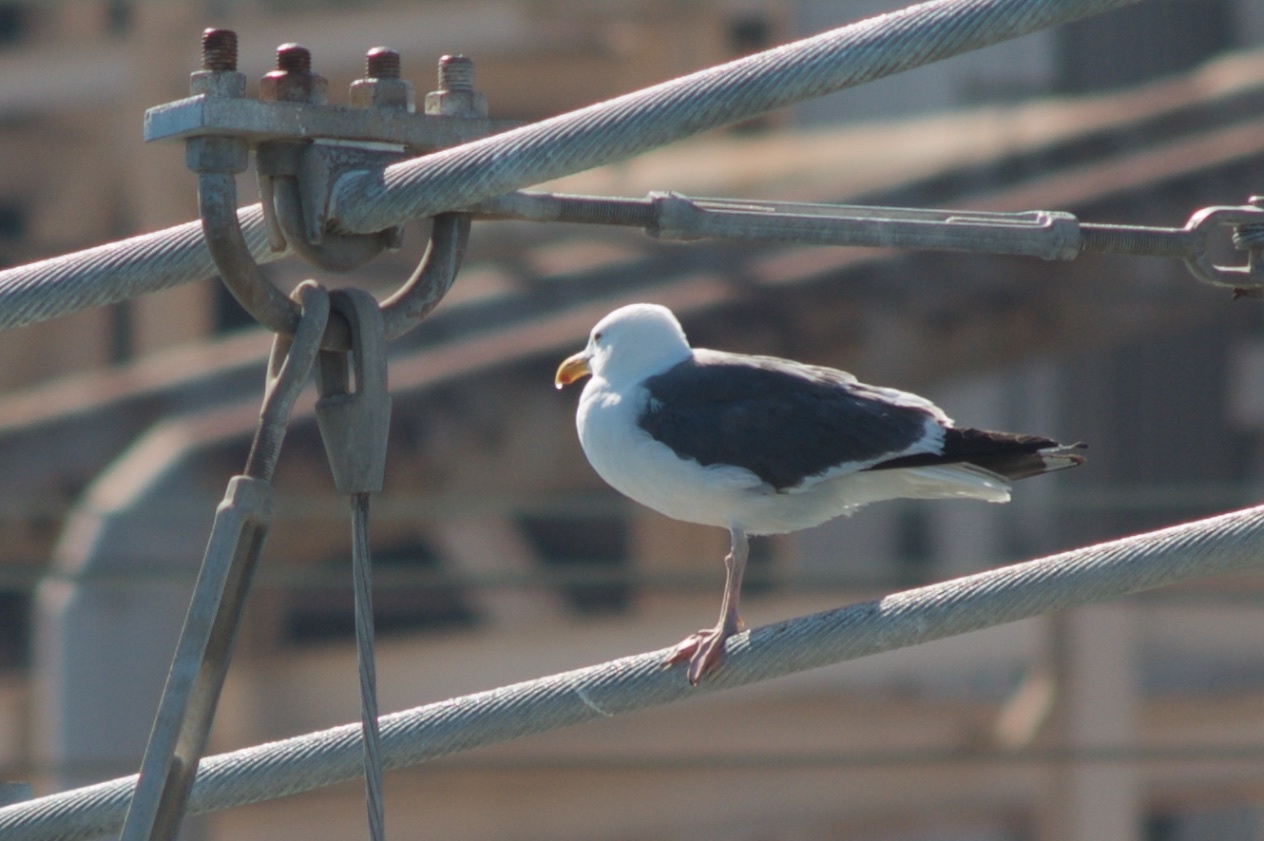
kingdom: Animalia
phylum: Chordata
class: Aves
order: Charadriiformes
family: Laridae
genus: Larus
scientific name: Larus occidentalis
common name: Western gull
